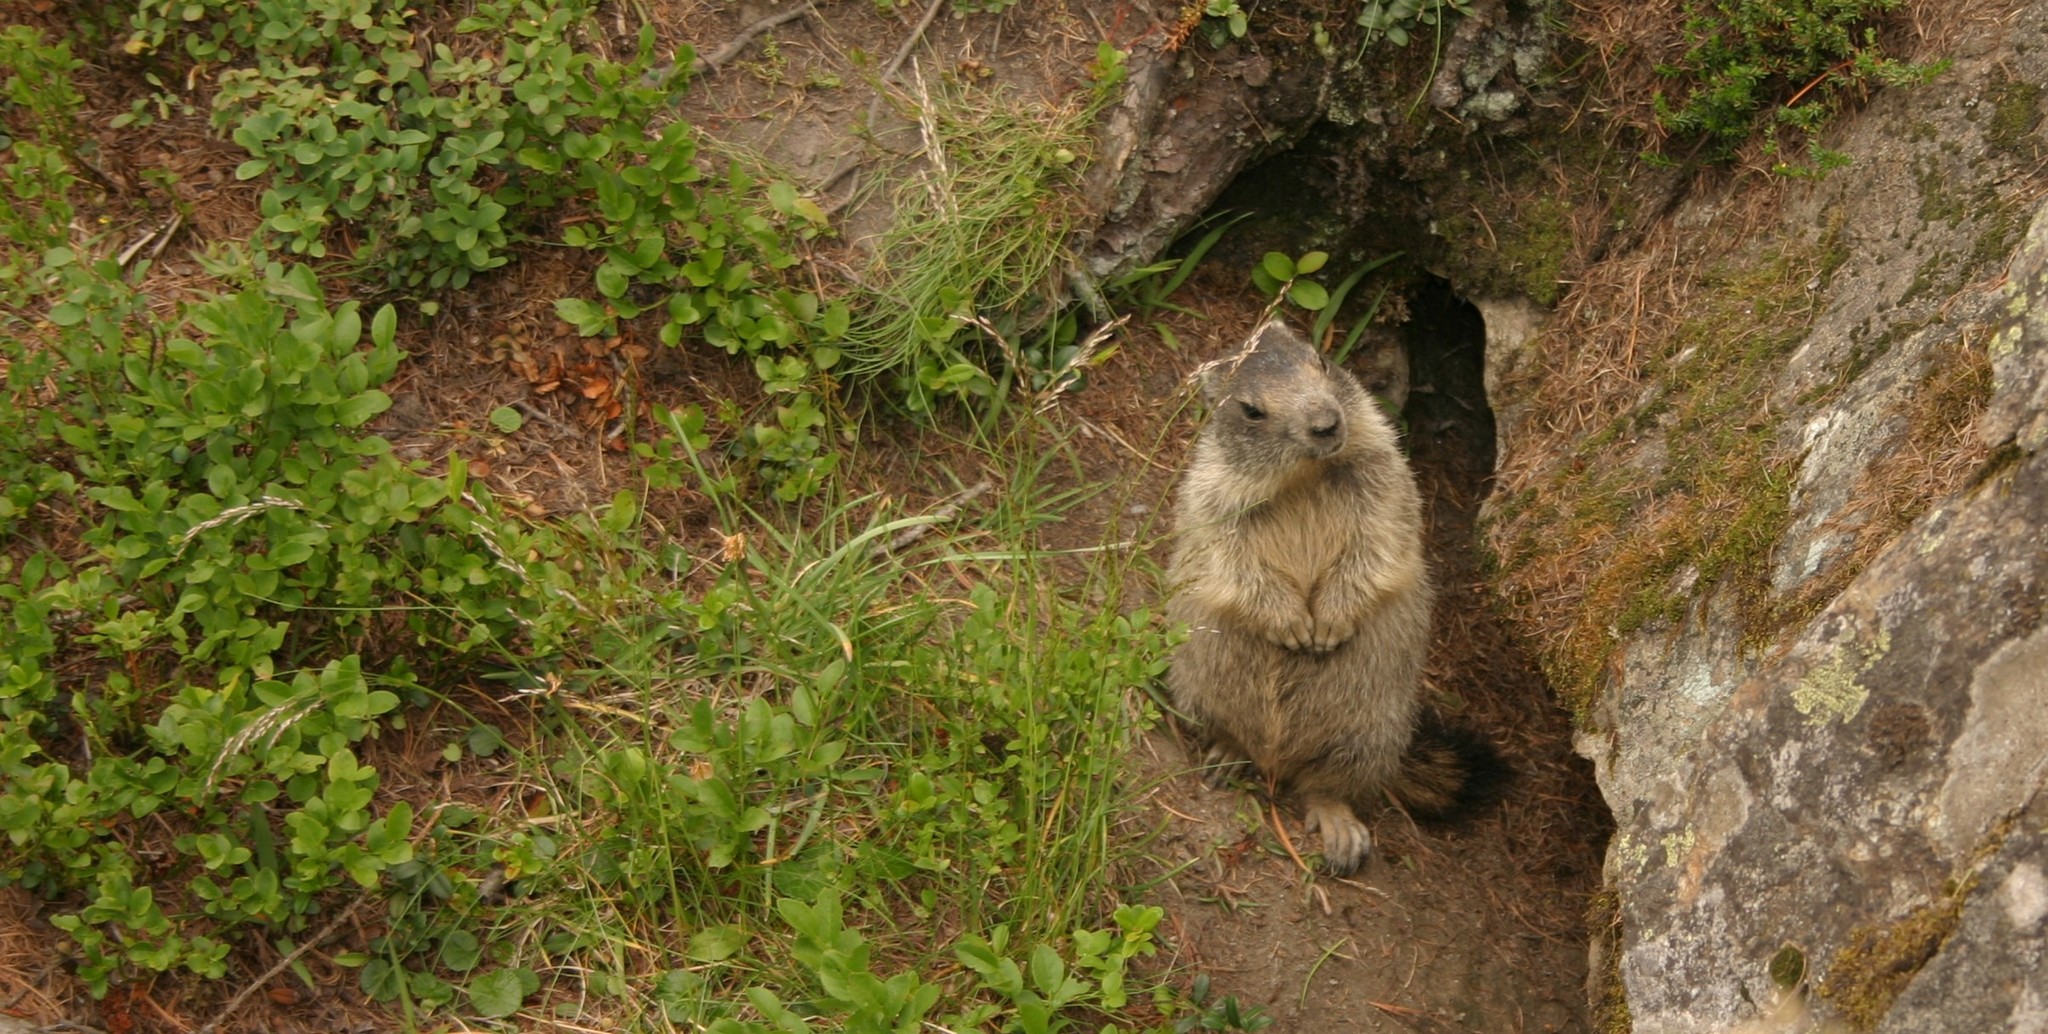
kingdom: Animalia
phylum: Chordata
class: Mammalia
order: Rodentia
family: Sciuridae
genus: Marmota
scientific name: Marmota marmota
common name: Alpine marmot
